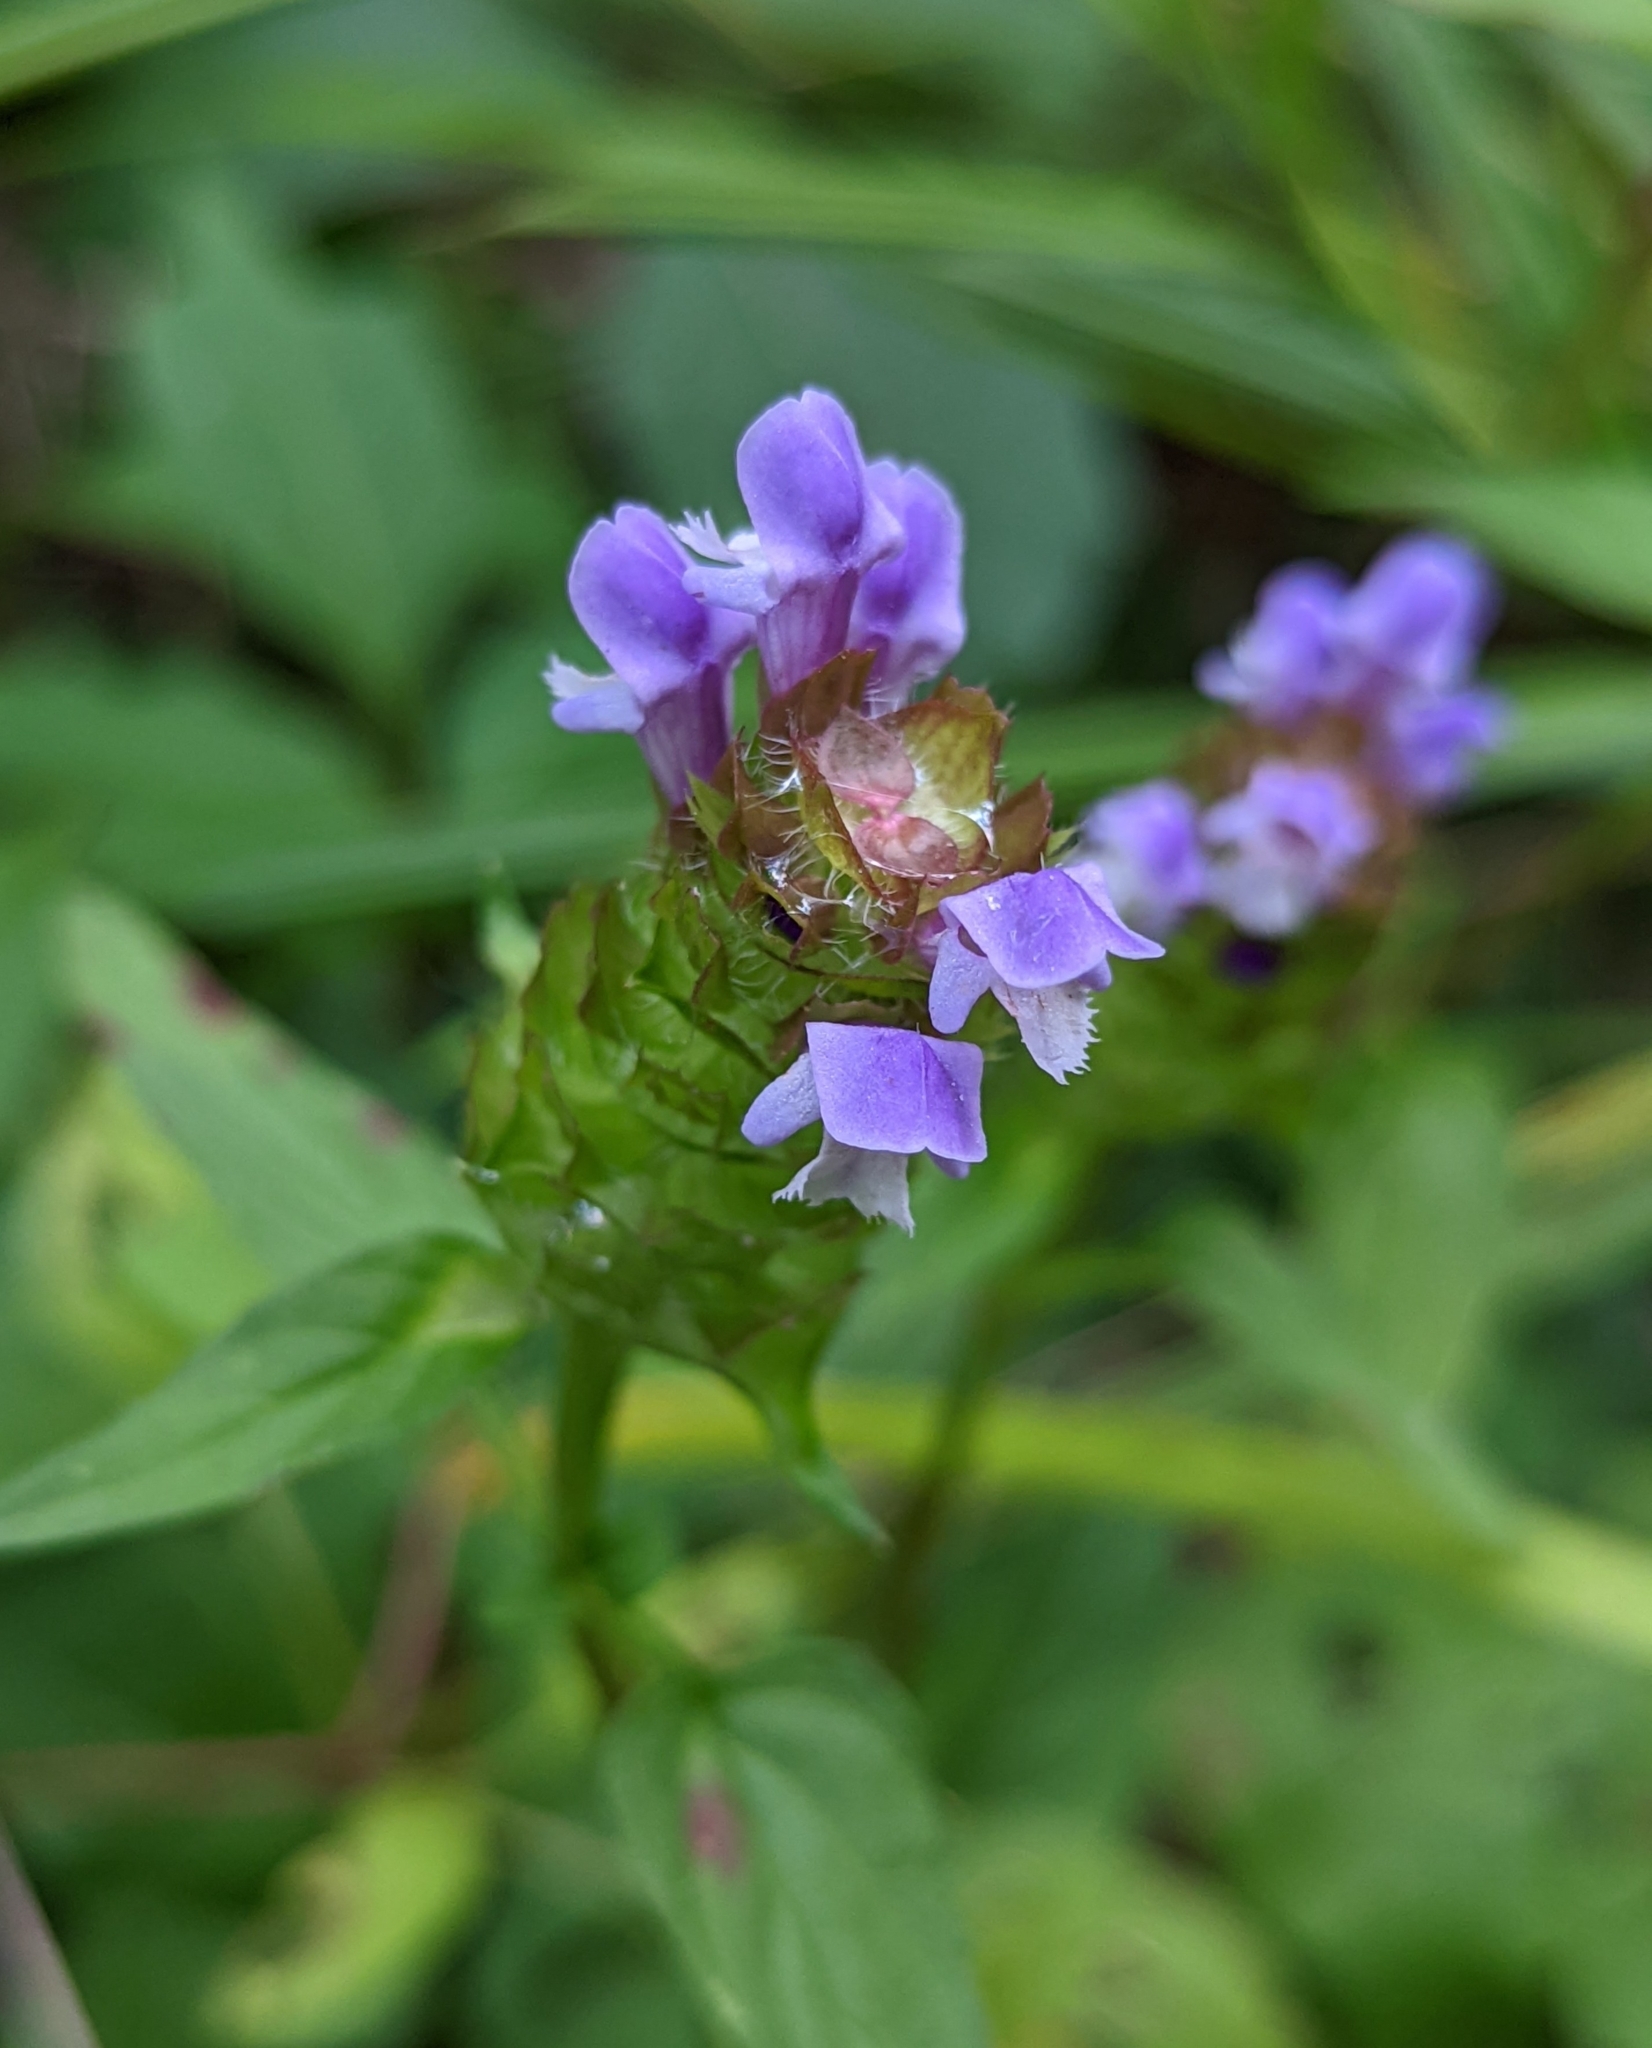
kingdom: Plantae
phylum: Tracheophyta
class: Magnoliopsida
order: Lamiales
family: Lamiaceae
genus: Prunella
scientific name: Prunella vulgaris
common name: Heal-all
